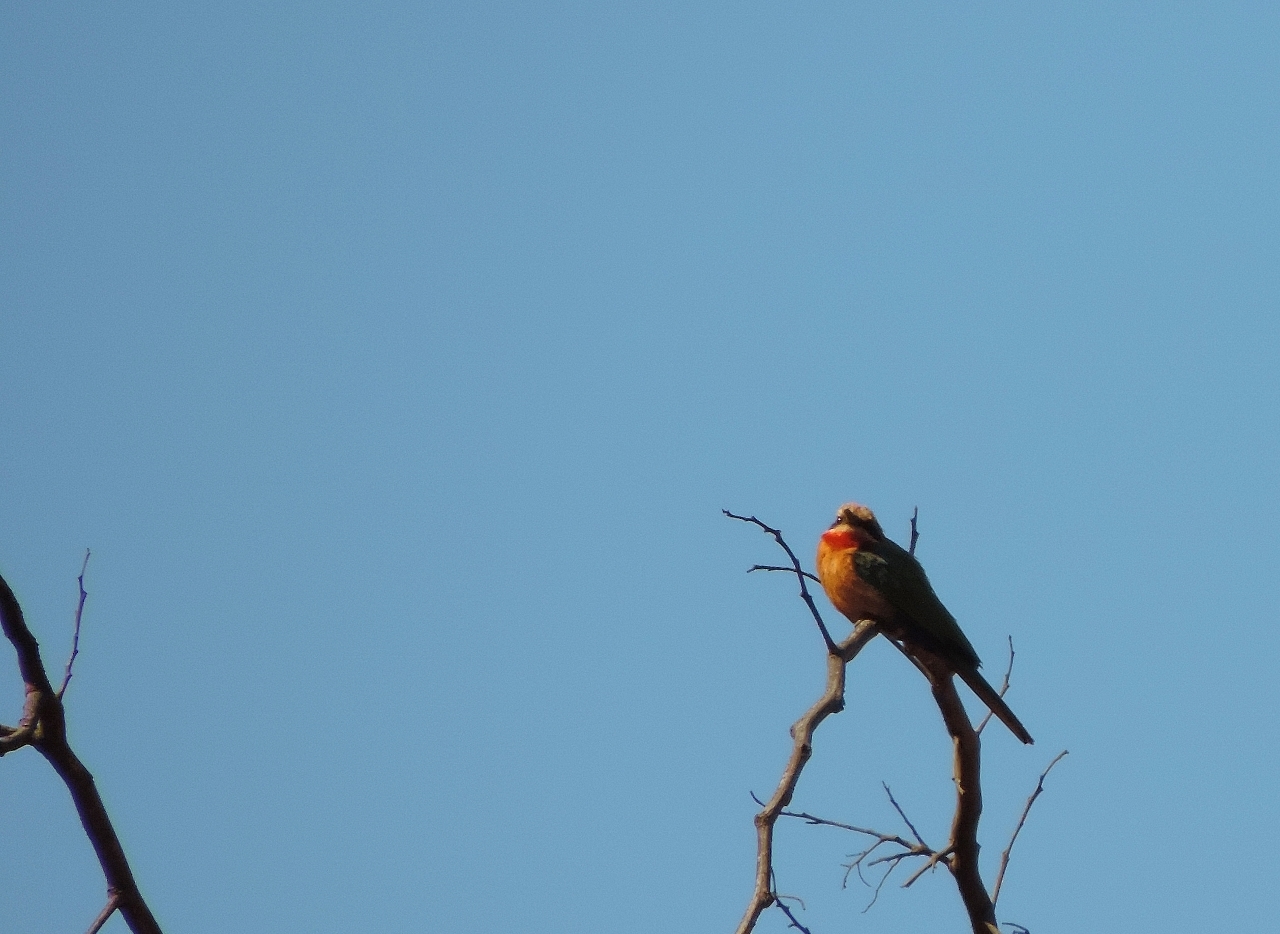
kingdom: Animalia
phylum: Chordata
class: Aves
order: Coraciiformes
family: Meropidae
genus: Merops
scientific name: Merops bullockoides
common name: White-fronted bee-eater
